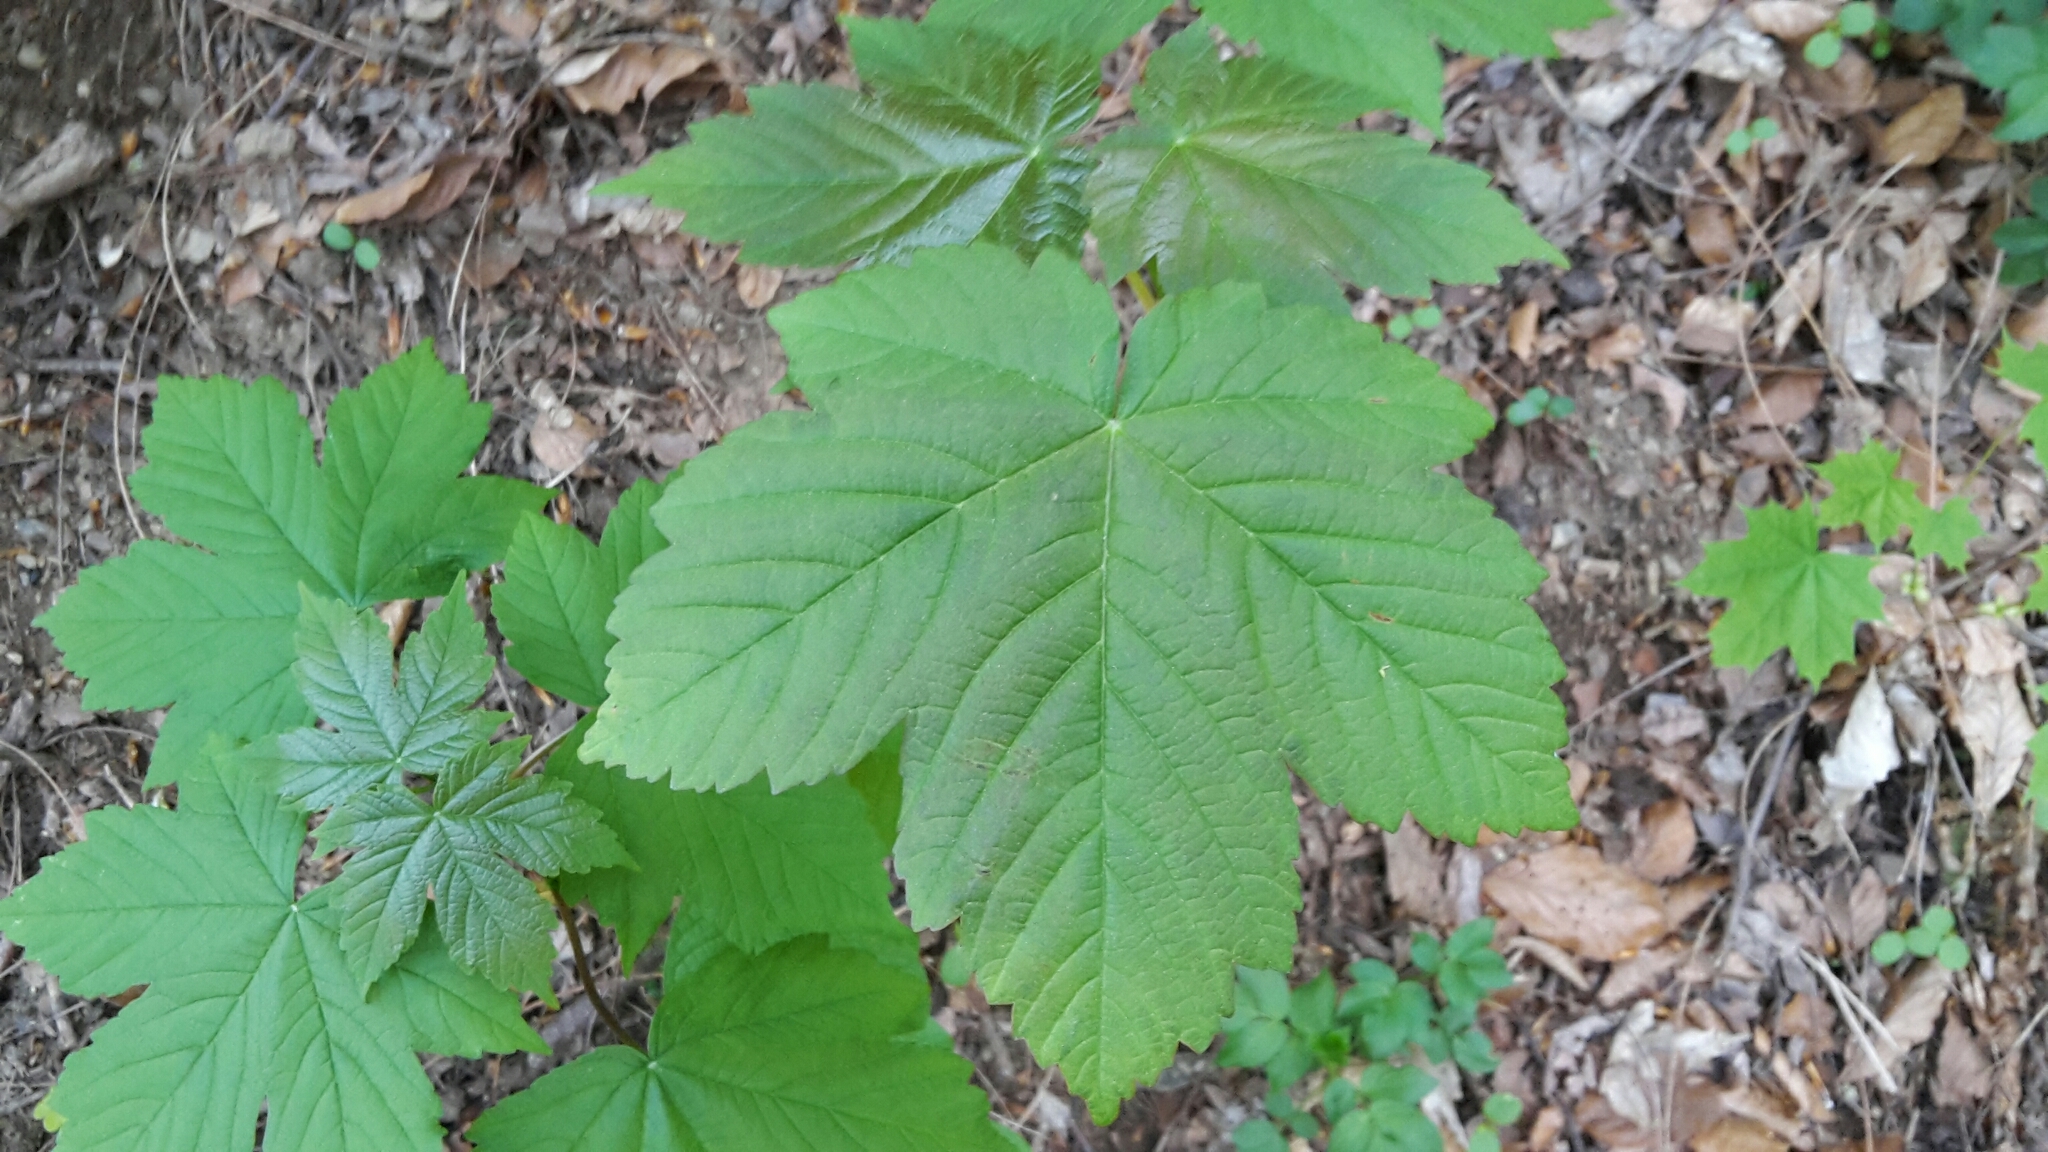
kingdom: Plantae
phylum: Tracheophyta
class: Magnoliopsida
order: Sapindales
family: Sapindaceae
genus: Acer
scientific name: Acer pseudoplatanus
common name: Sycamore
